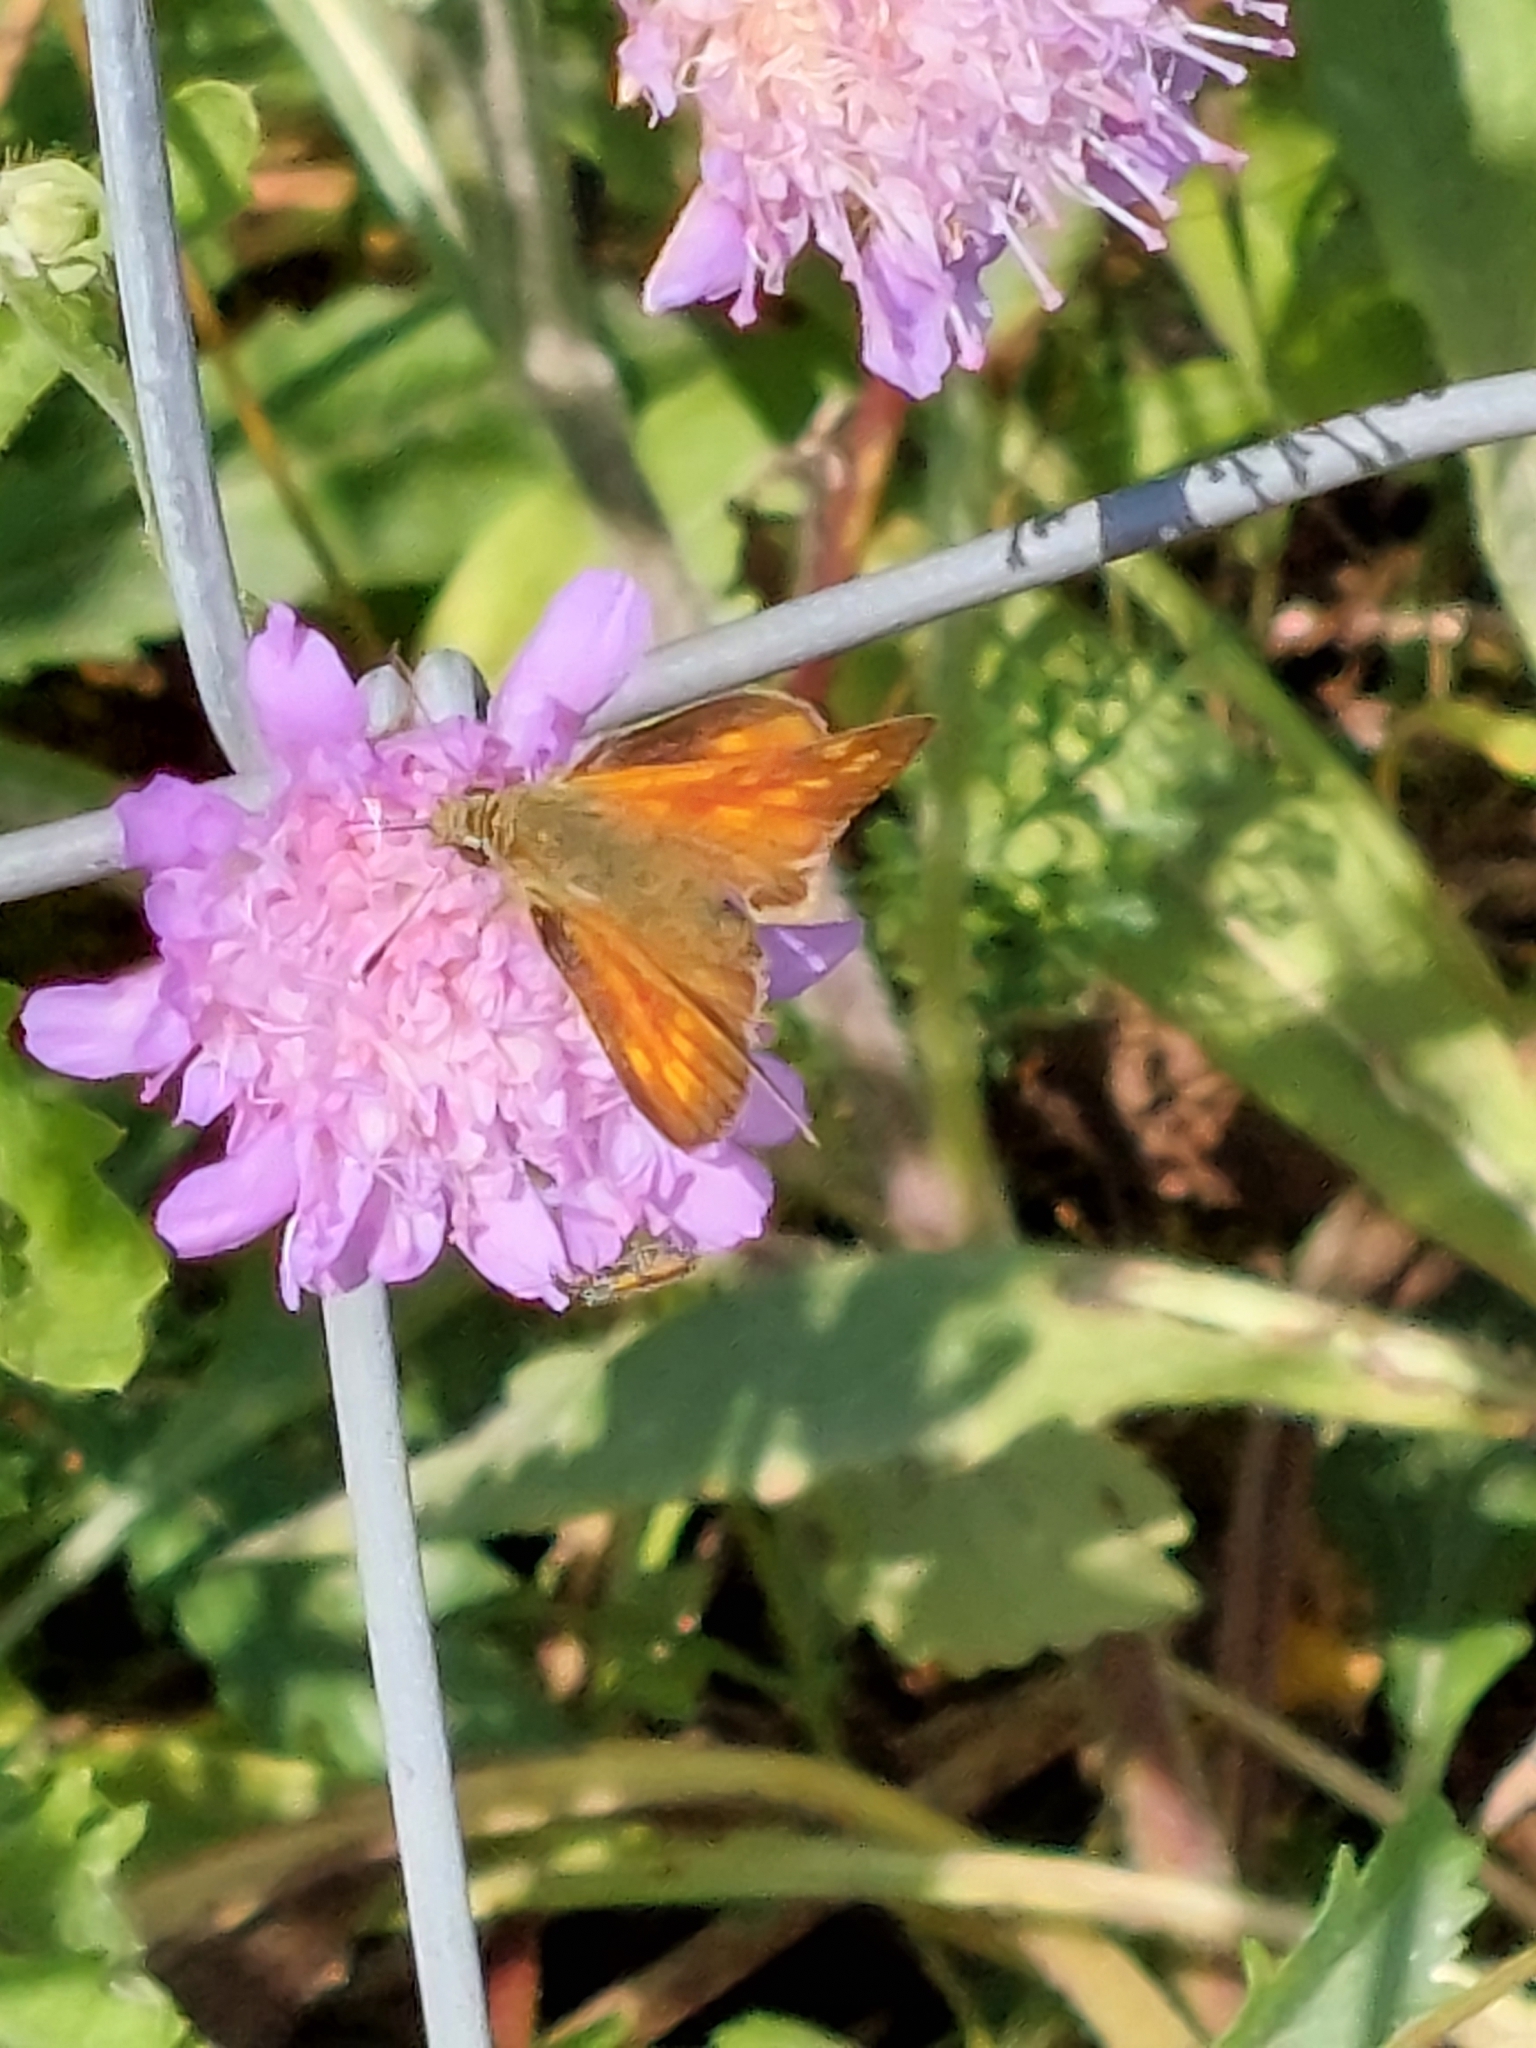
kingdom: Animalia
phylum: Arthropoda
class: Insecta
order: Lepidoptera
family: Hesperiidae
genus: Ochlodes
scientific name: Ochlodes venata
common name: Large skipper
